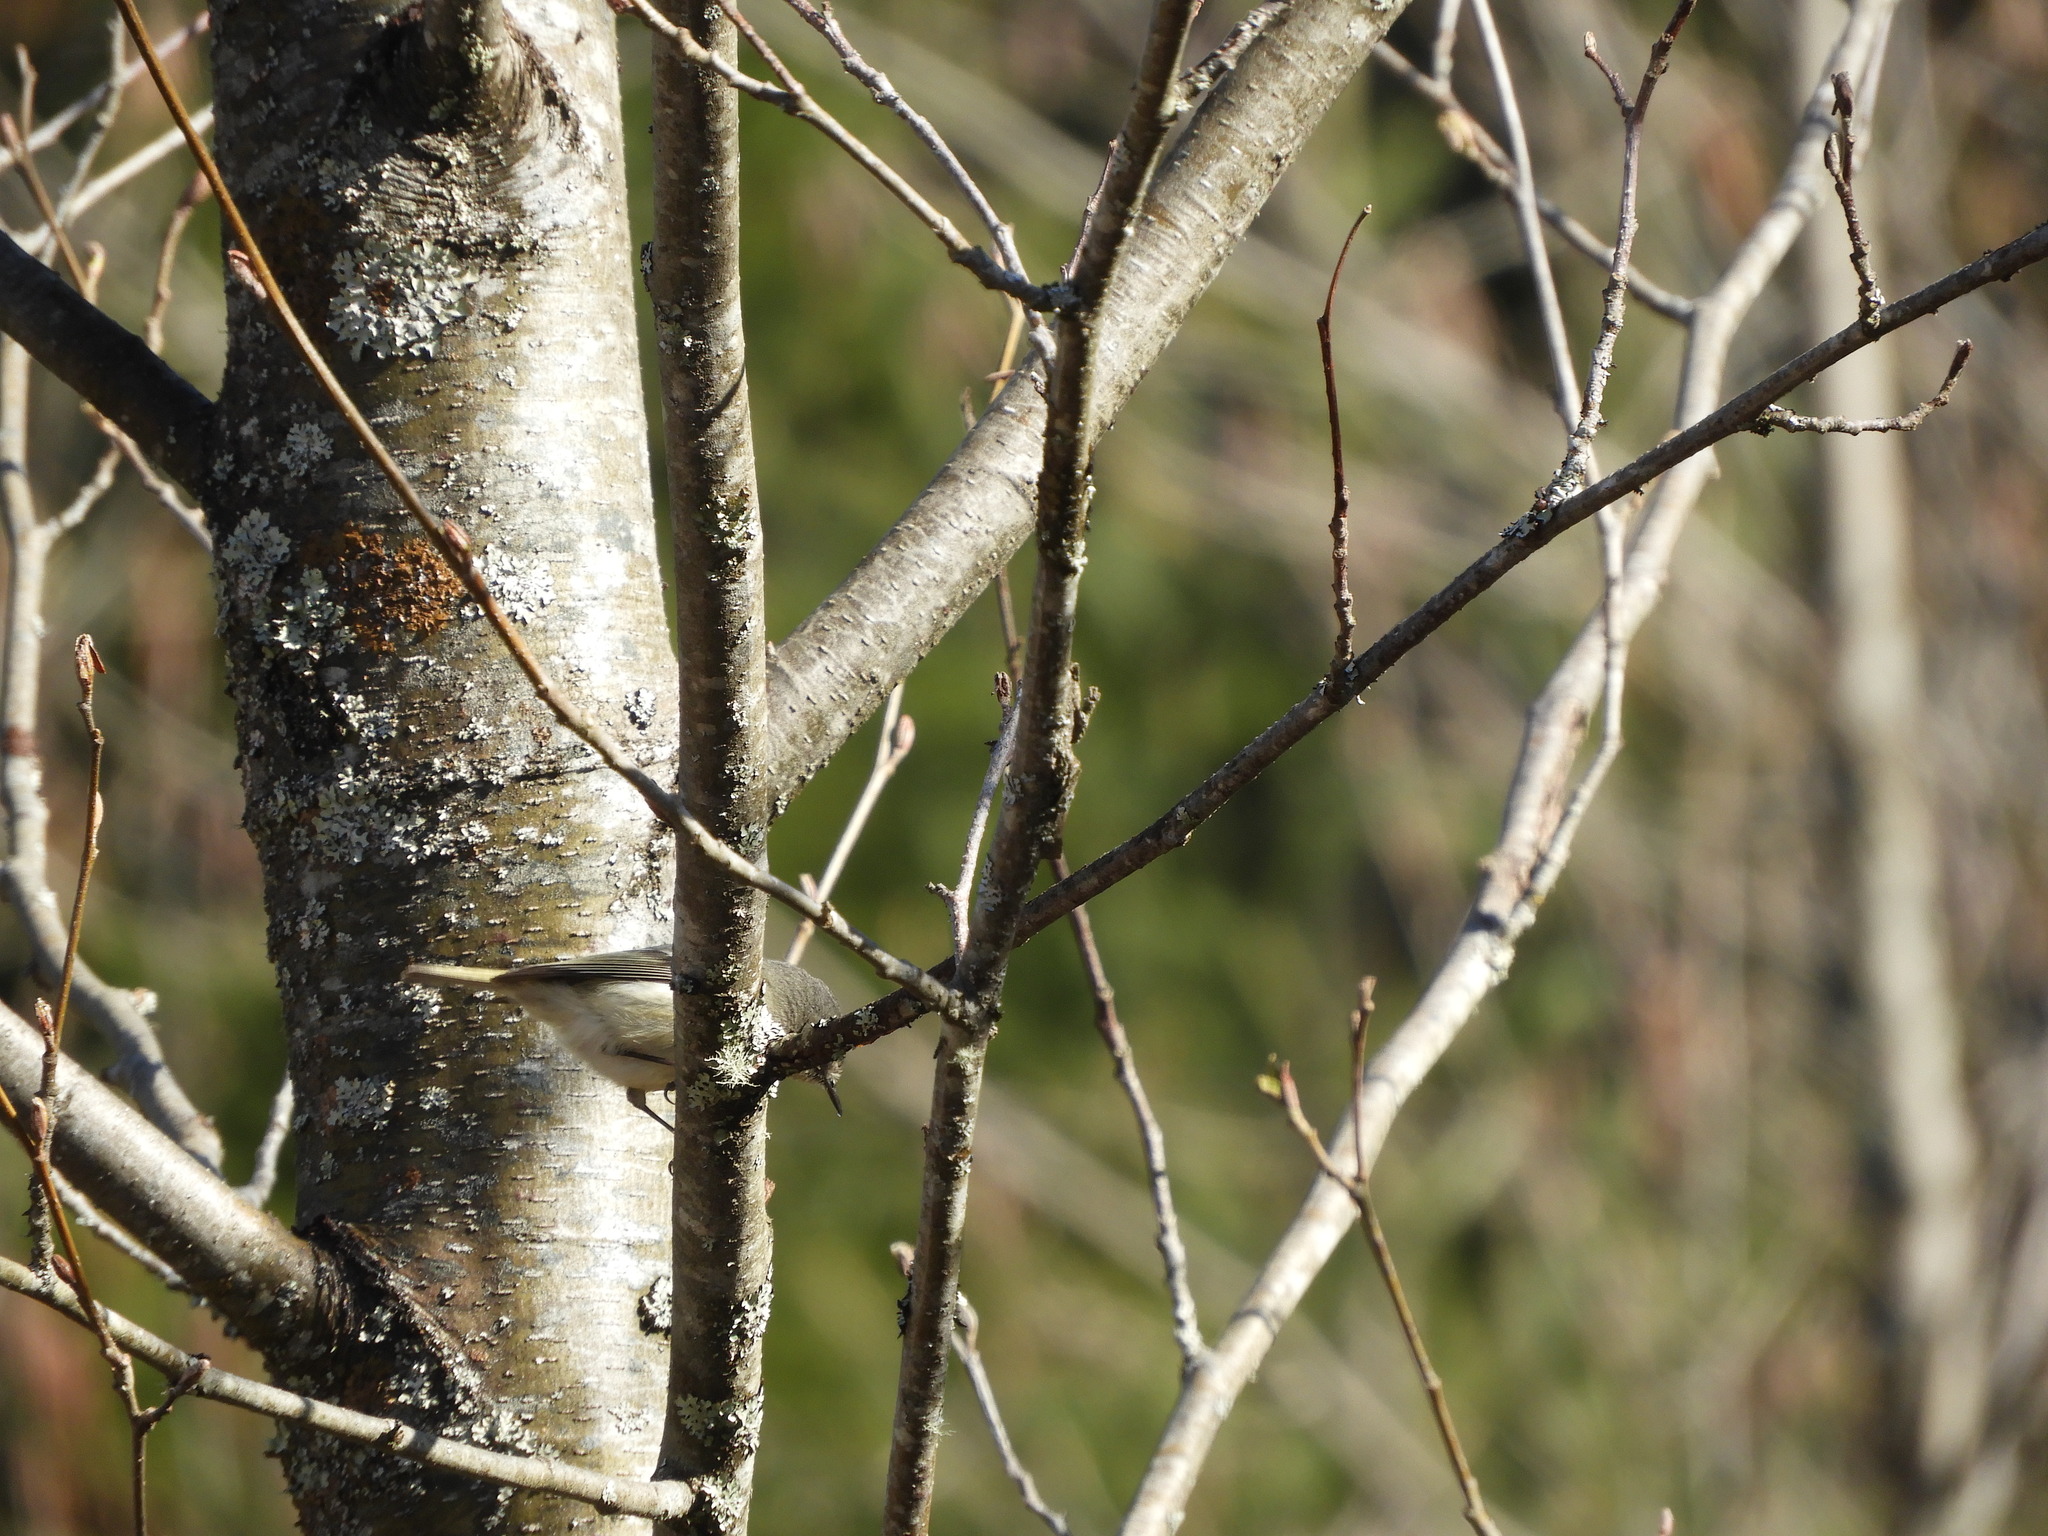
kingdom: Animalia
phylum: Chordata
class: Aves
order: Passeriformes
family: Regulidae
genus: Regulus
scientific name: Regulus calendula
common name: Ruby-crowned kinglet
